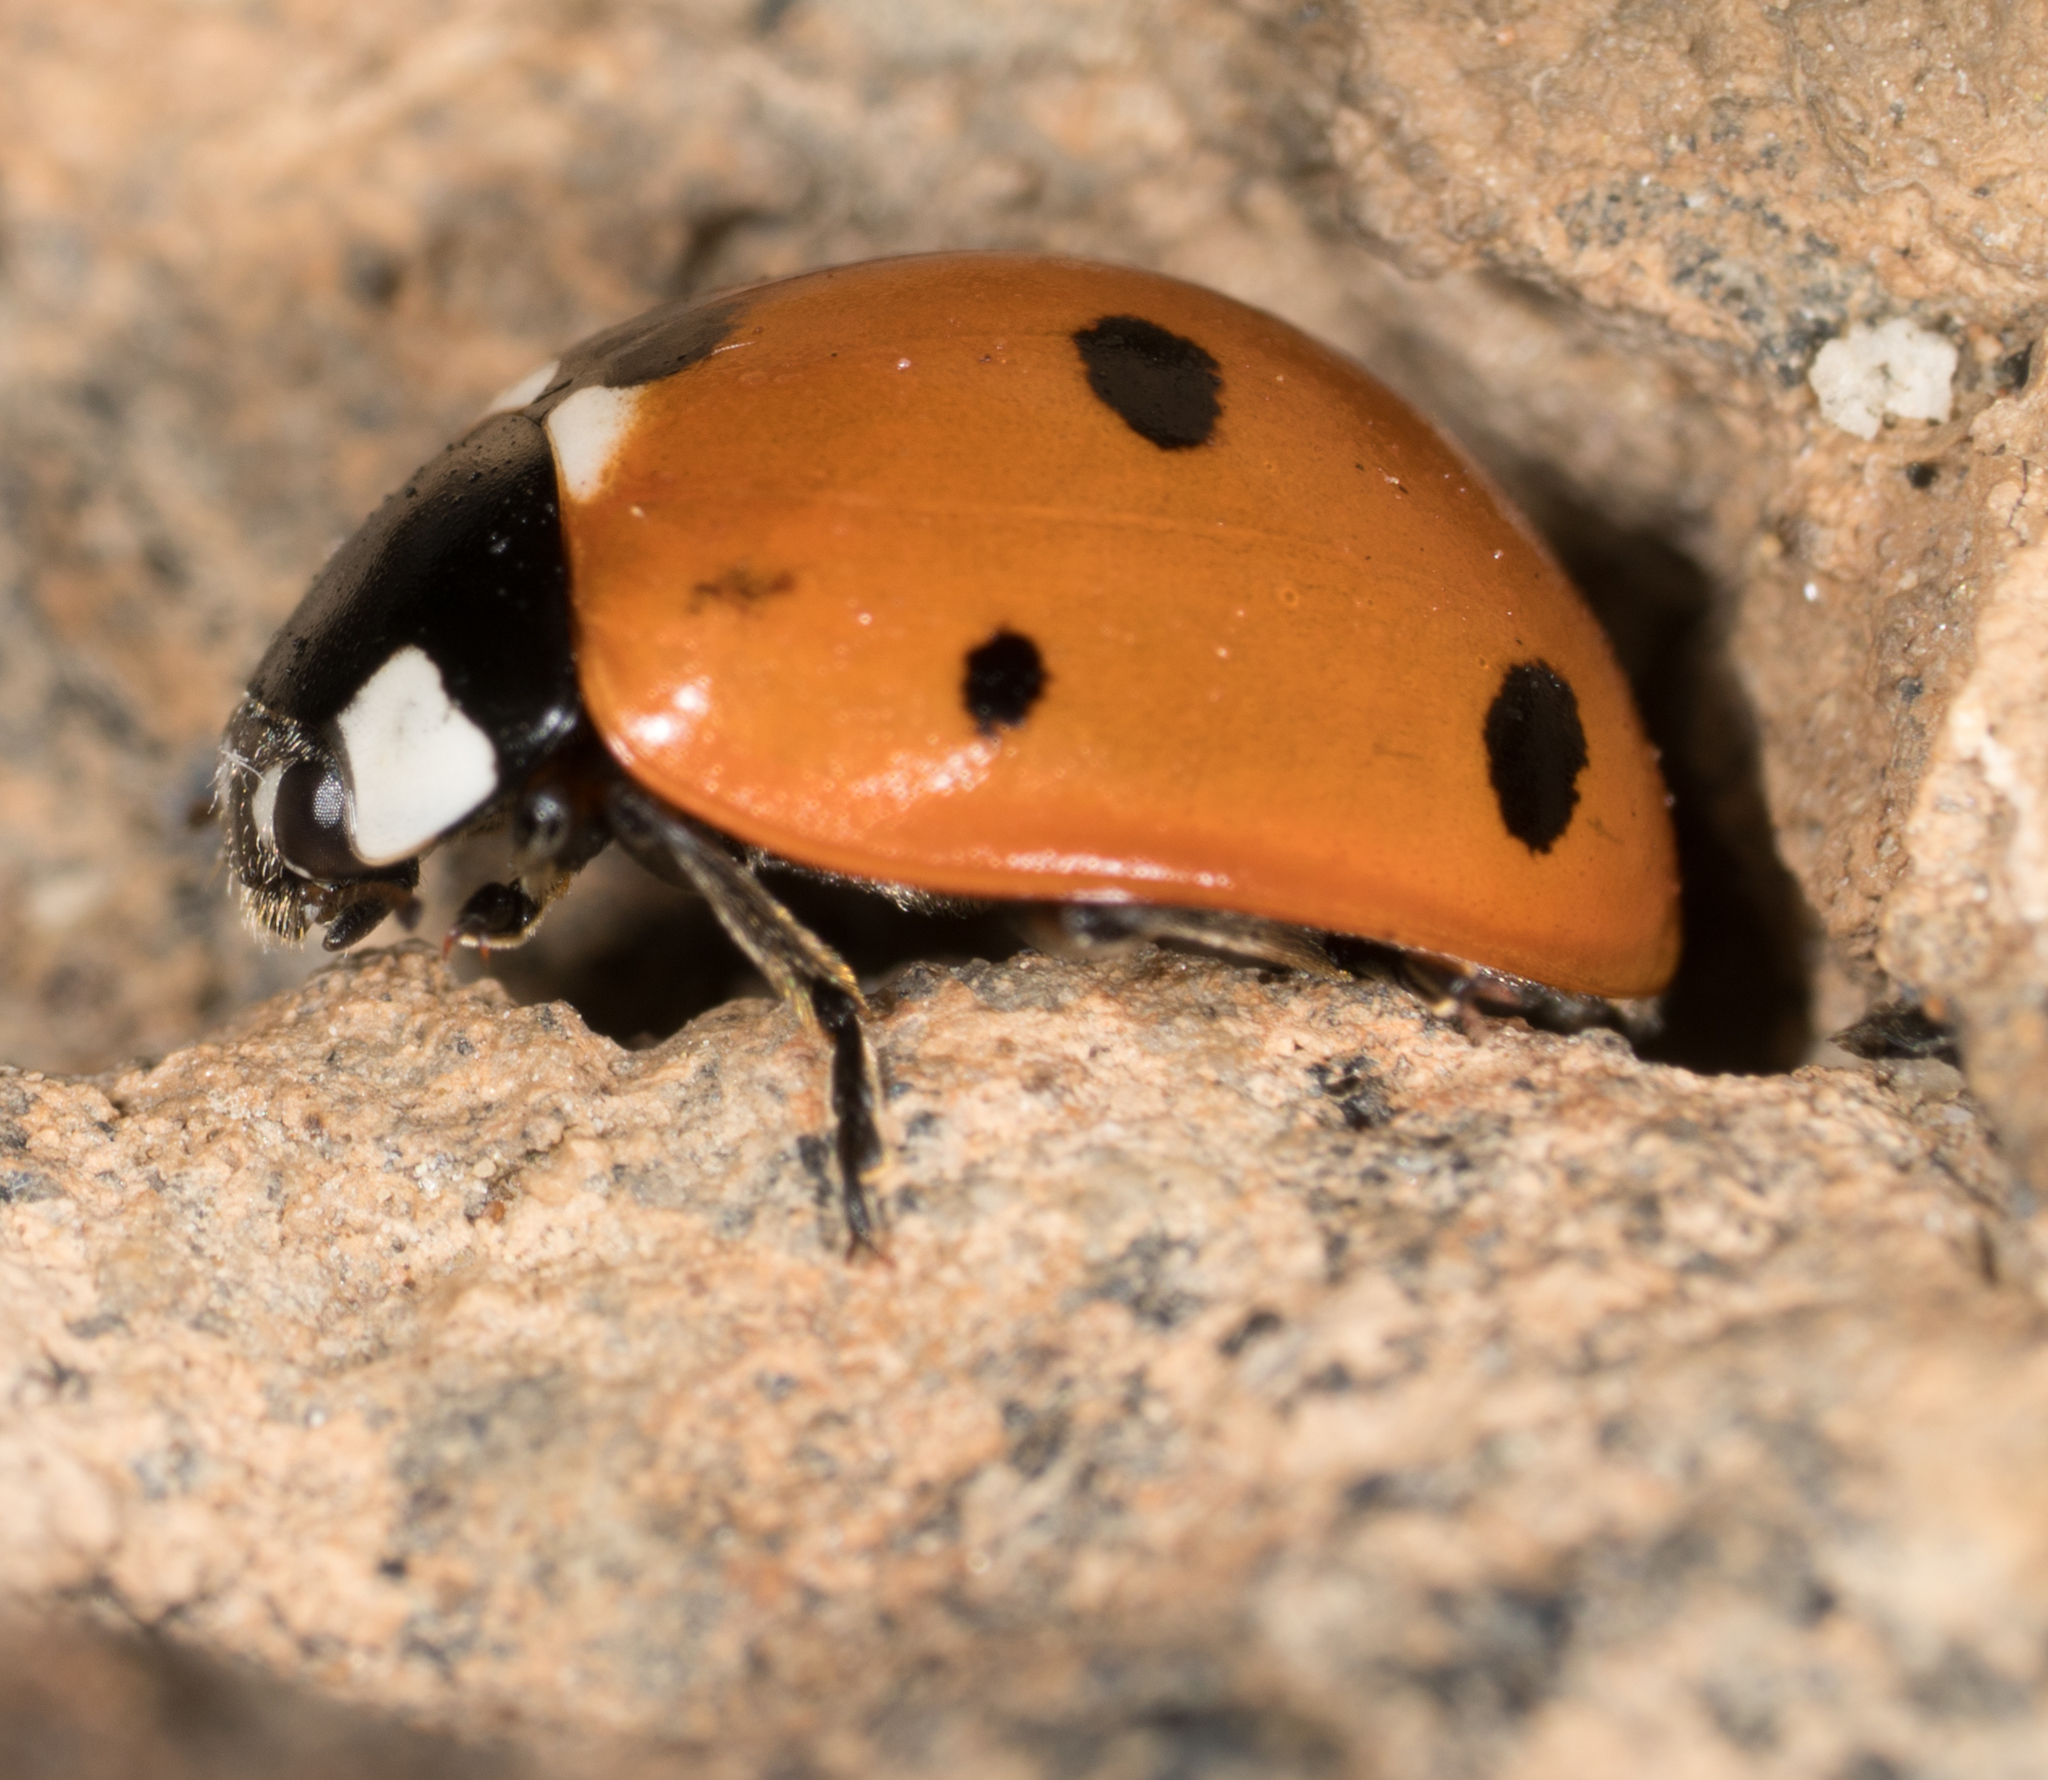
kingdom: Animalia
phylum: Arthropoda
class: Insecta
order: Coleoptera
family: Coccinellidae
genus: Coccinella
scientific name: Coccinella septempunctata
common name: Sevenspotted lady beetle
